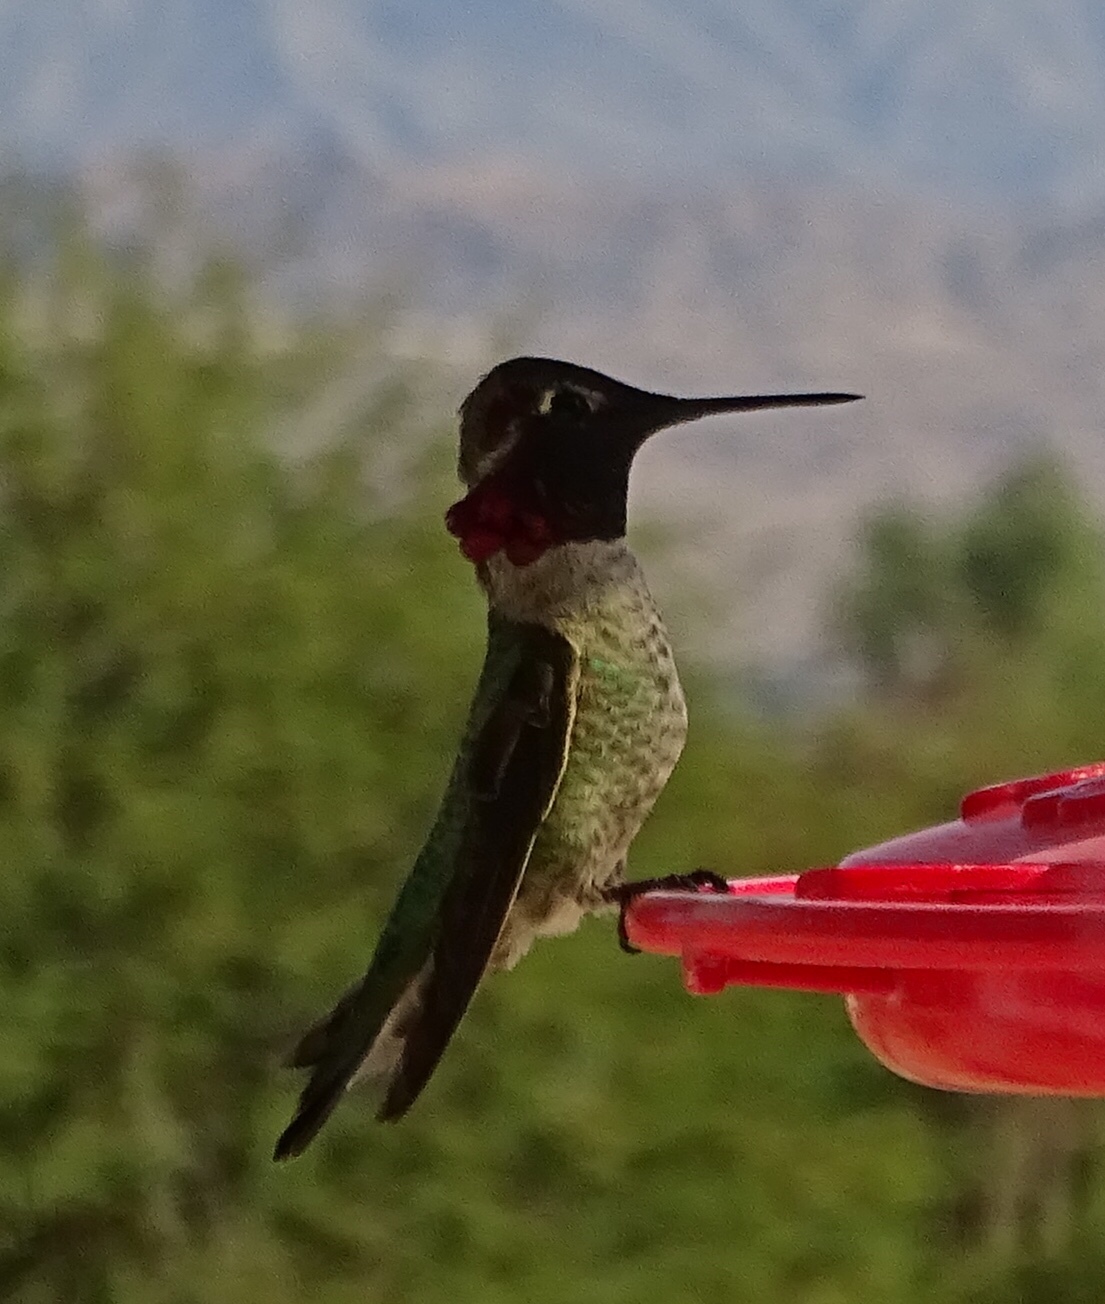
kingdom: Animalia
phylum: Chordata
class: Aves
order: Apodiformes
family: Trochilidae
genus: Calypte
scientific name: Calypte anna
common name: Anna's hummingbird
